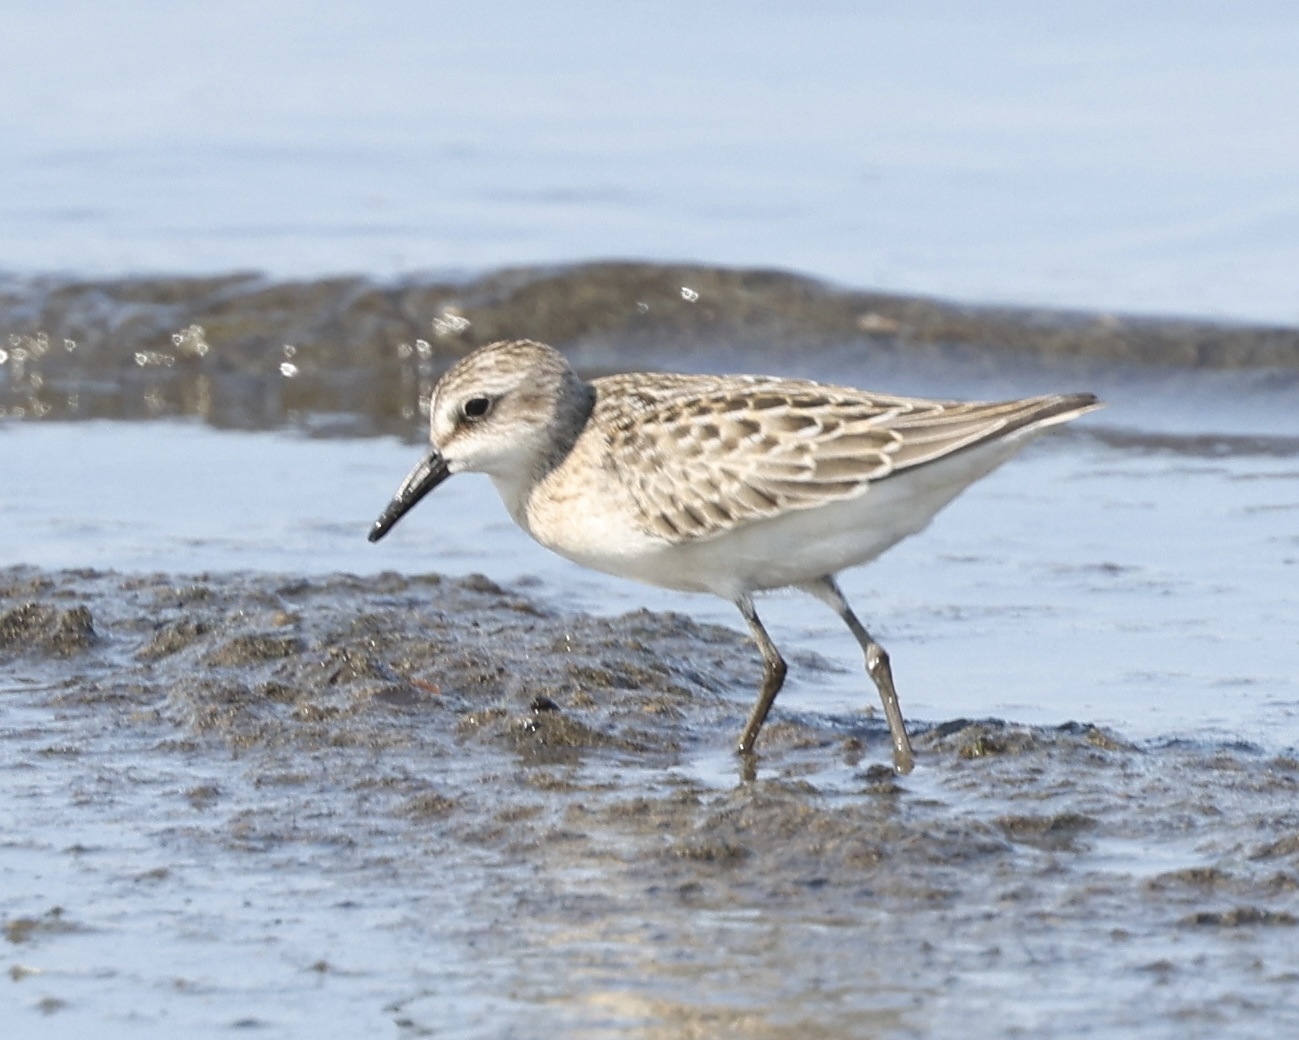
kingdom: Animalia
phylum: Chordata
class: Aves
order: Charadriiformes
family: Scolopacidae
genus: Calidris
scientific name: Calidris pusilla
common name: Semipalmated sandpiper
